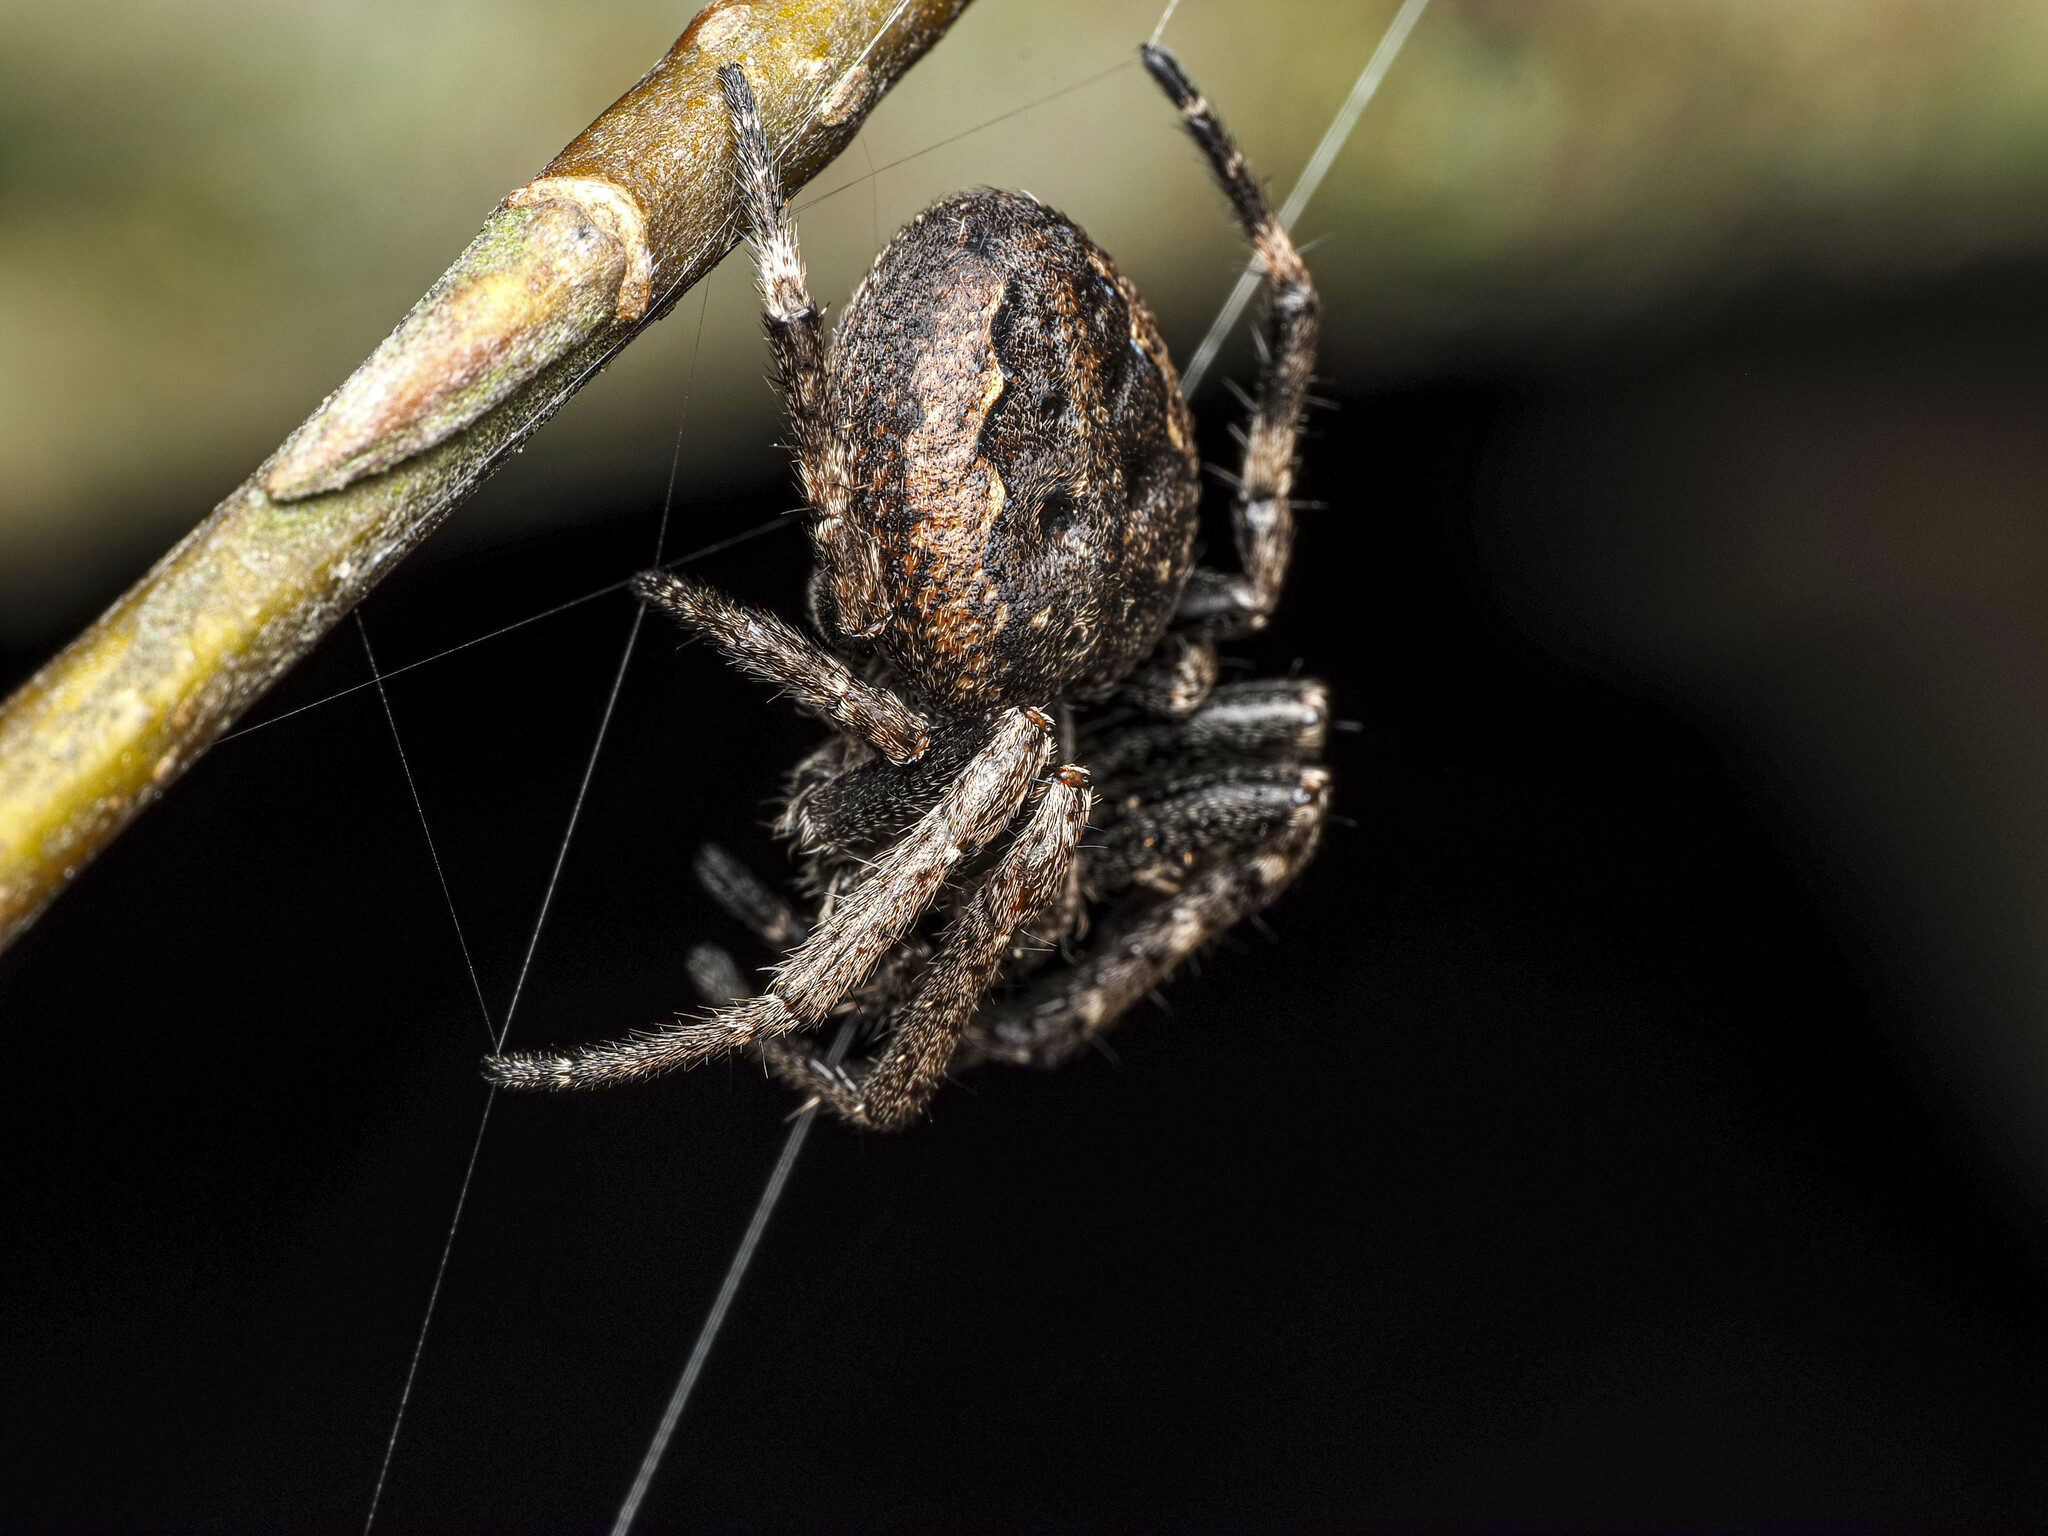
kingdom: Animalia
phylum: Arthropoda
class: Arachnida
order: Araneae
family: Araneidae
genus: Nuctenea
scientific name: Nuctenea umbratica
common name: Toad spider
